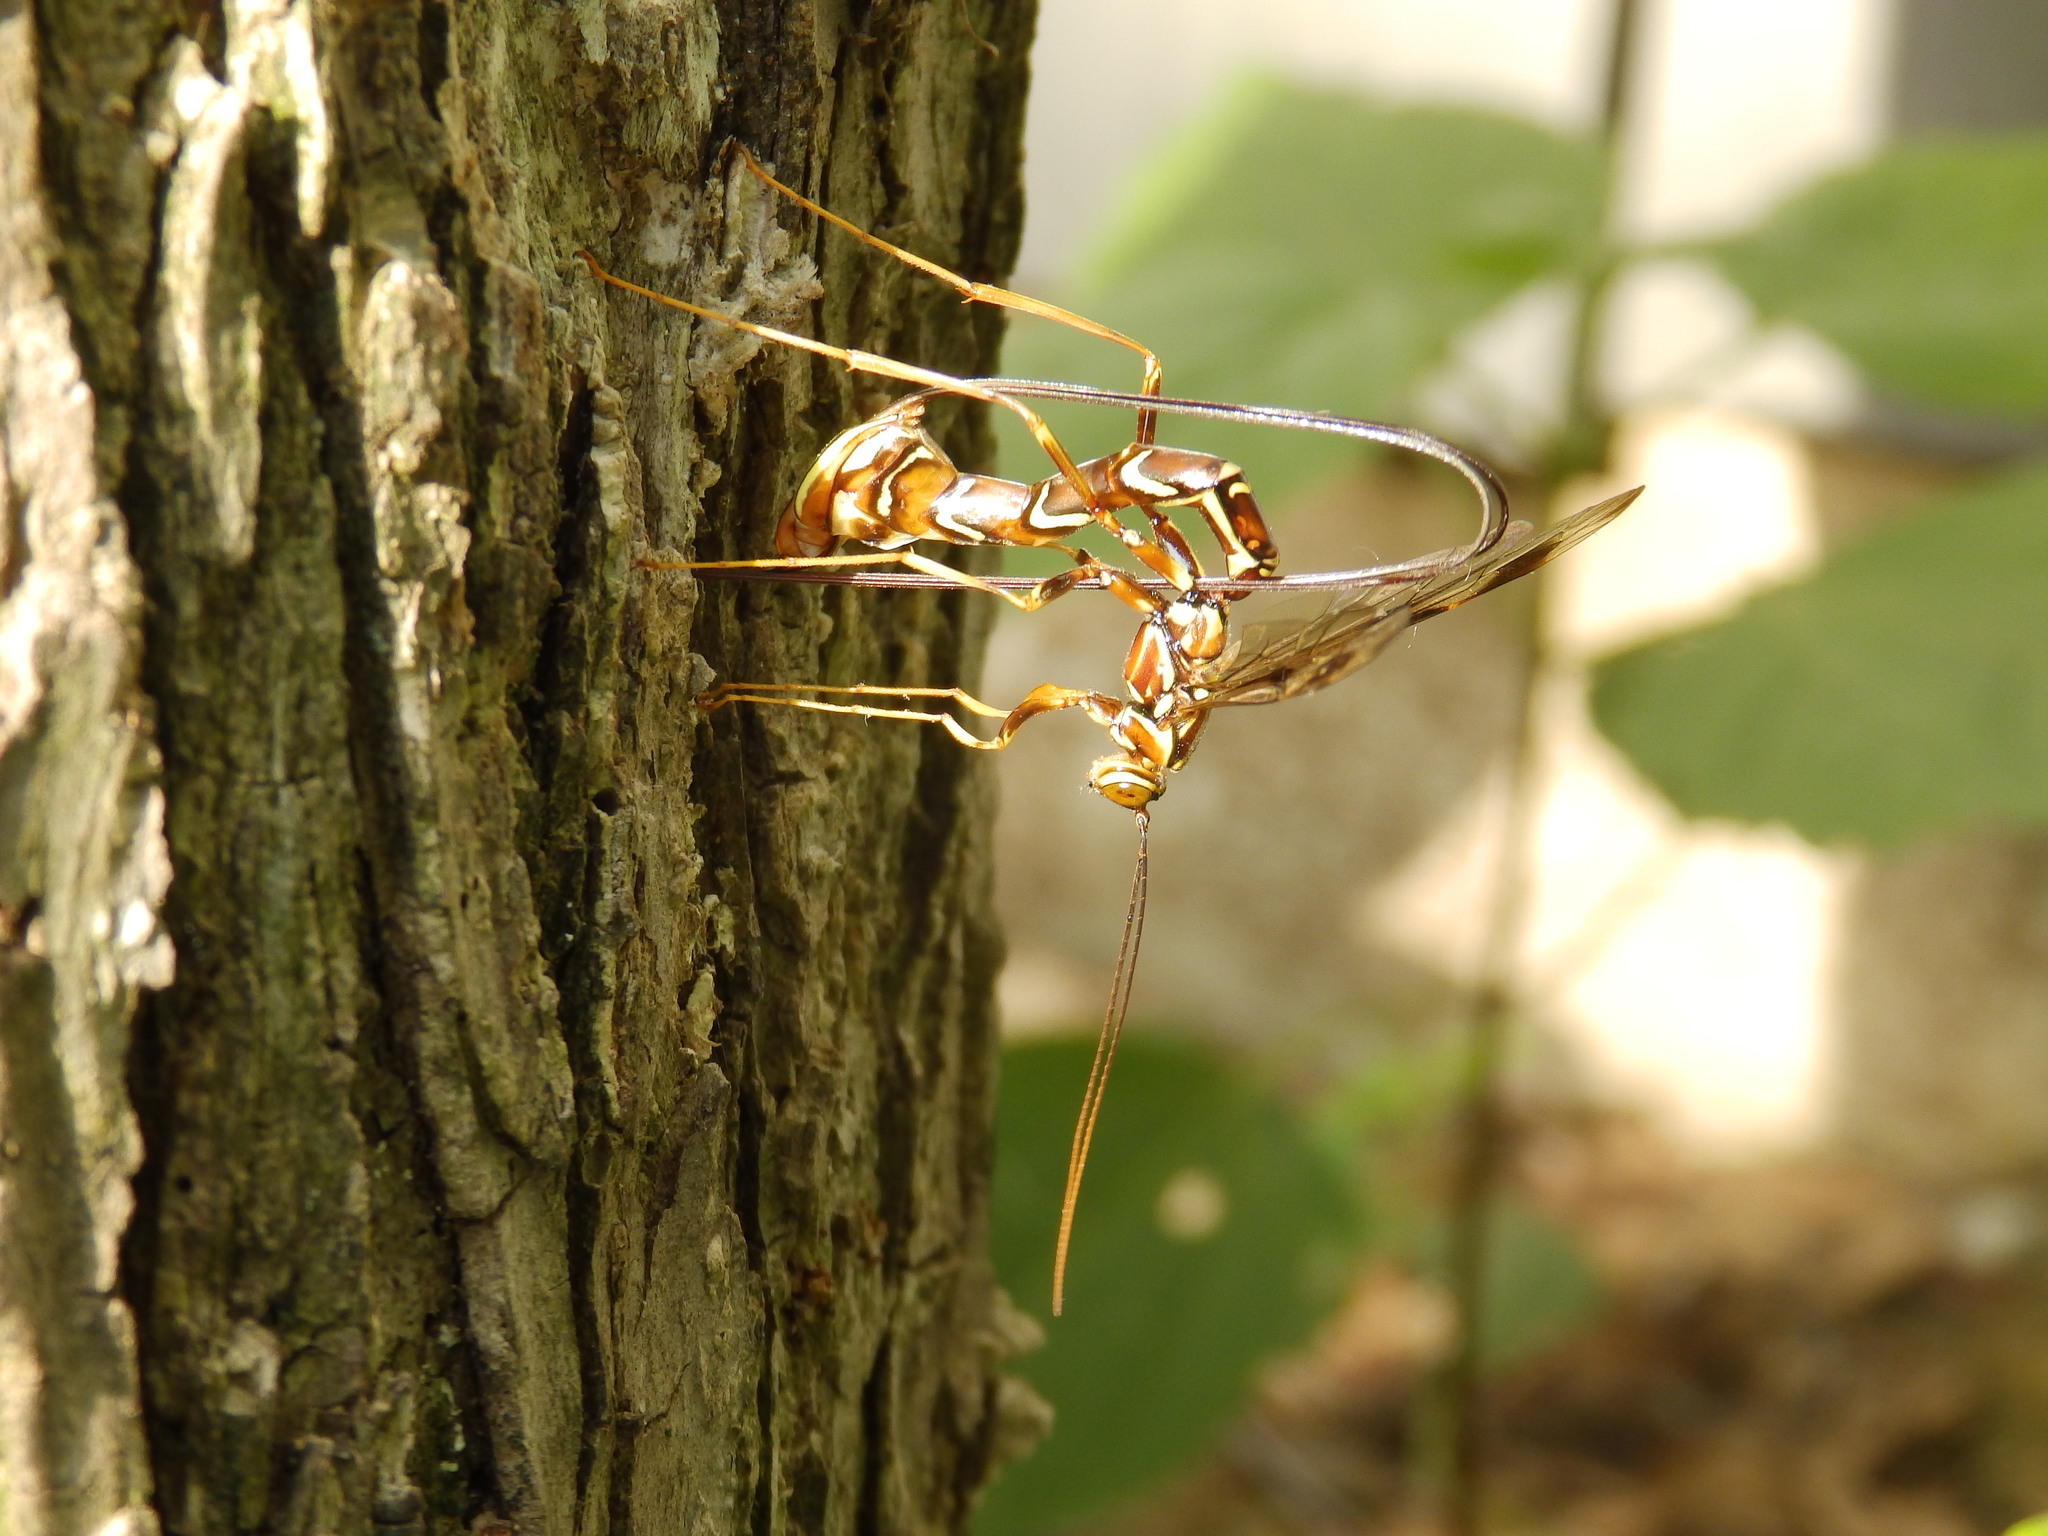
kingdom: Animalia
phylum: Arthropoda
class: Insecta
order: Hymenoptera
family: Ichneumonidae
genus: Megarhyssa
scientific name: Megarhyssa macrura
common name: Long-tailed giant ichneumonid wasp
